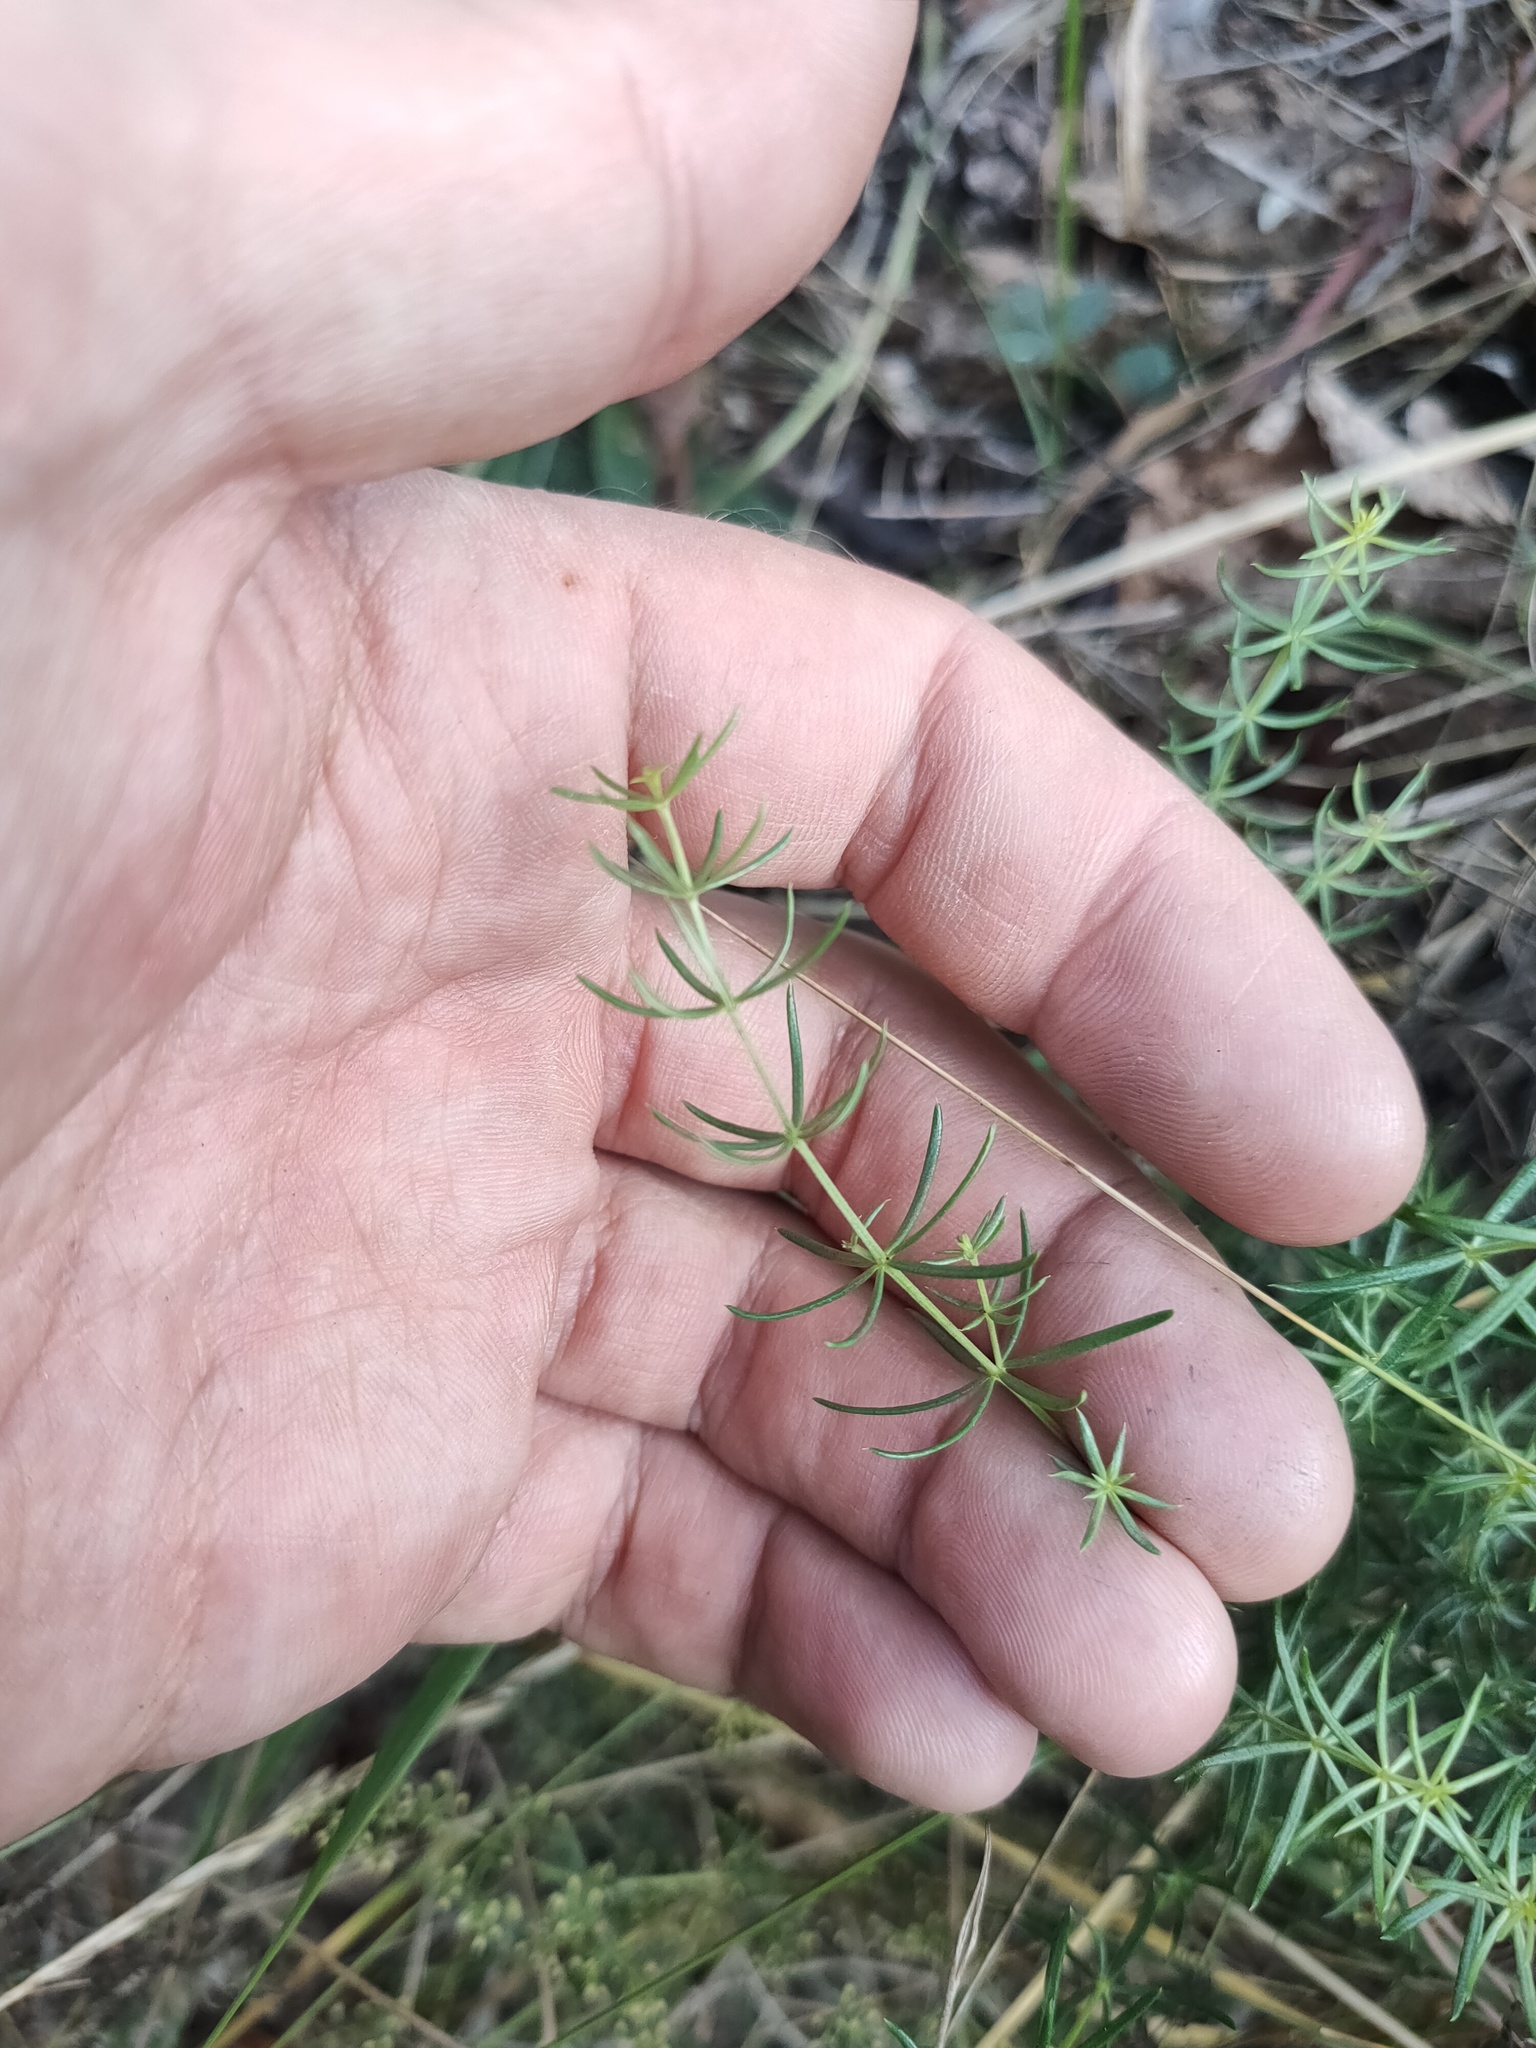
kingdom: Plantae
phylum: Tracheophyta
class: Magnoliopsida
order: Gentianales
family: Rubiaceae
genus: Galium
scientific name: Galium verum
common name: Lady's bedstraw
